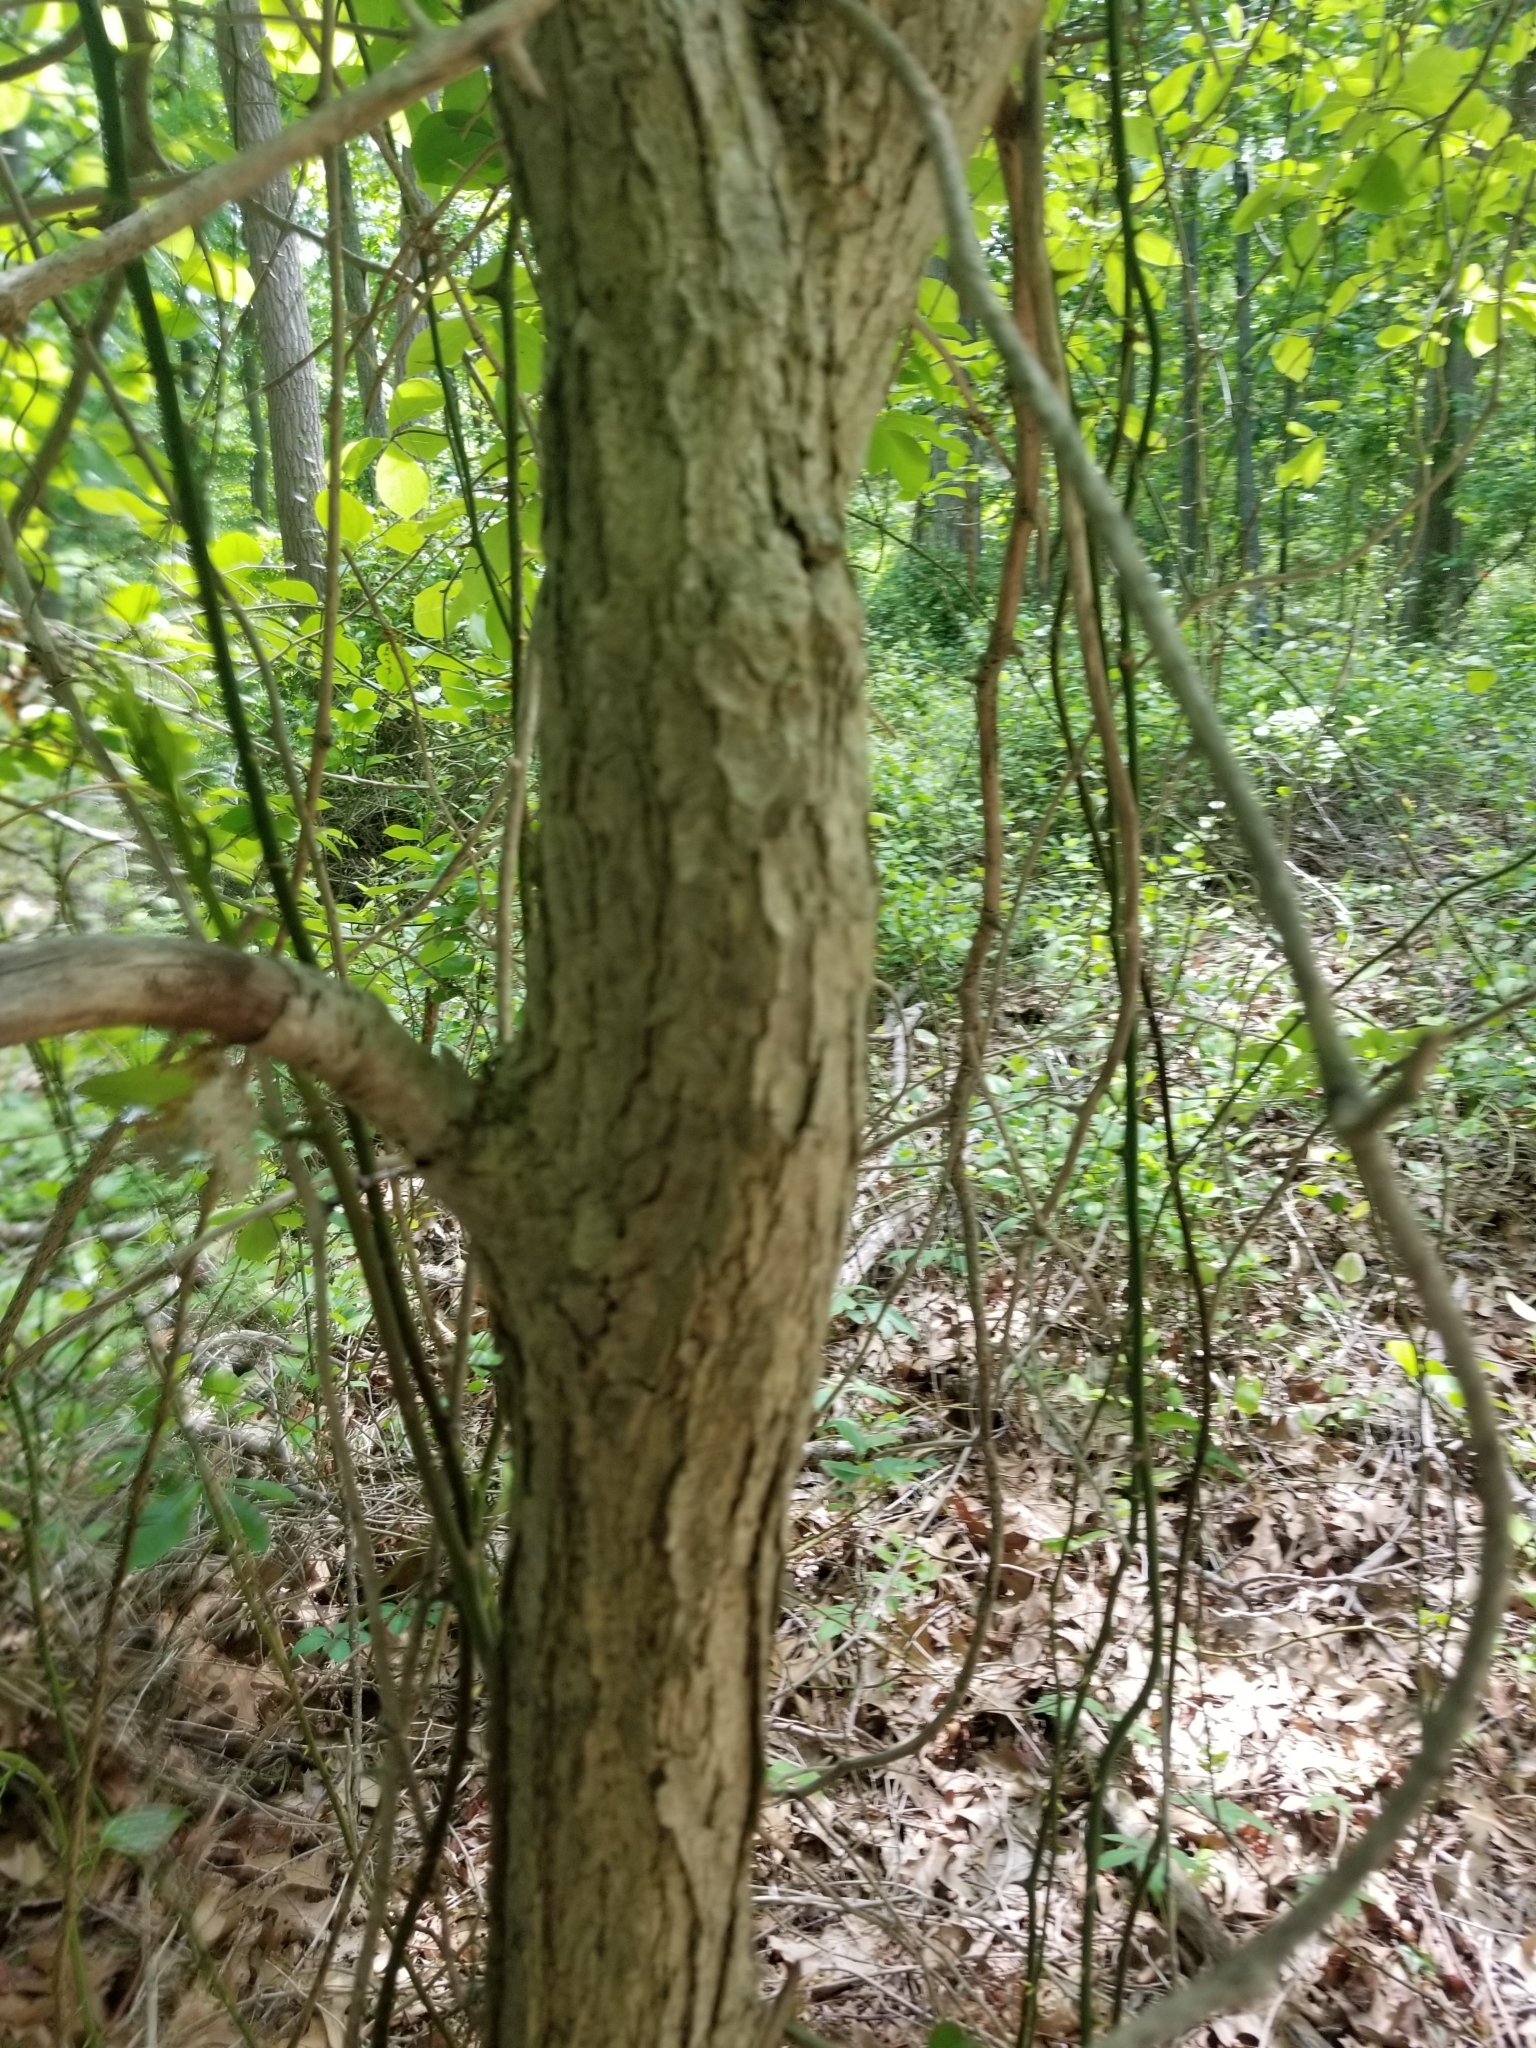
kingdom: Plantae
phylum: Tracheophyta
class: Magnoliopsida
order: Cornales
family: Nyssaceae
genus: Nyssa
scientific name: Nyssa sylvatica
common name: Black tupelo
